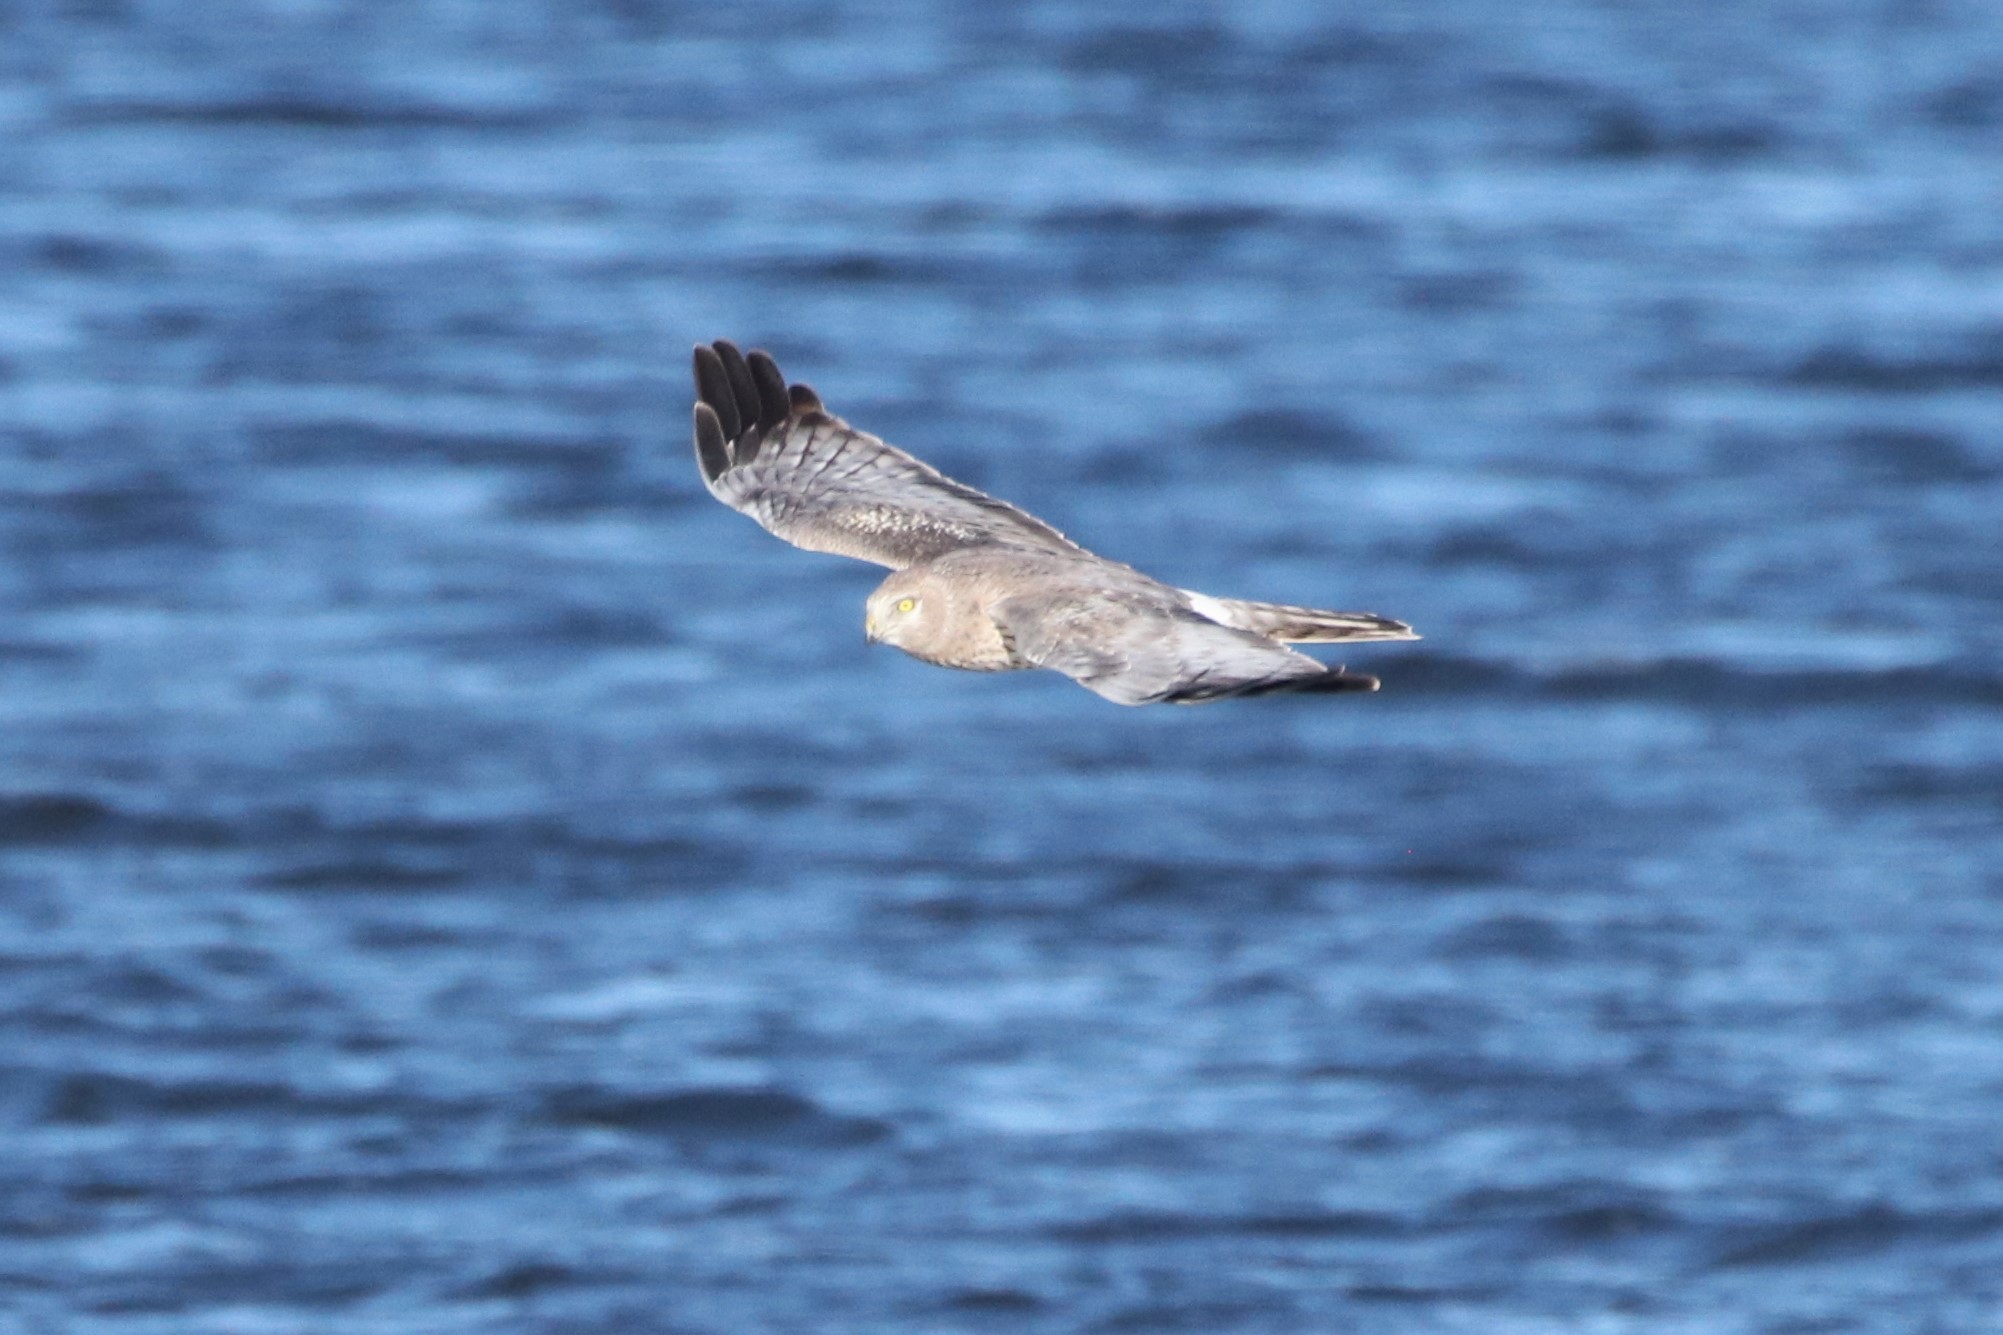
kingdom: Animalia
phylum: Chordata
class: Aves
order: Accipitriformes
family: Accipitridae
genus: Circus
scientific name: Circus cyaneus
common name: Hen harrier
